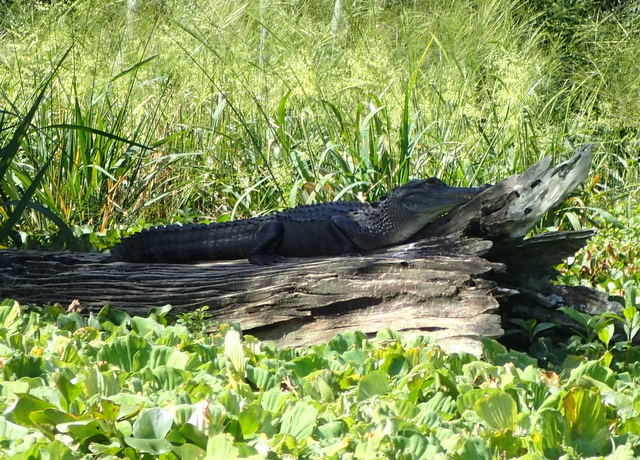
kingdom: Animalia
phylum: Chordata
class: Crocodylia
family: Alligatoridae
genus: Alligator
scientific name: Alligator mississippiensis
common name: American alligator
